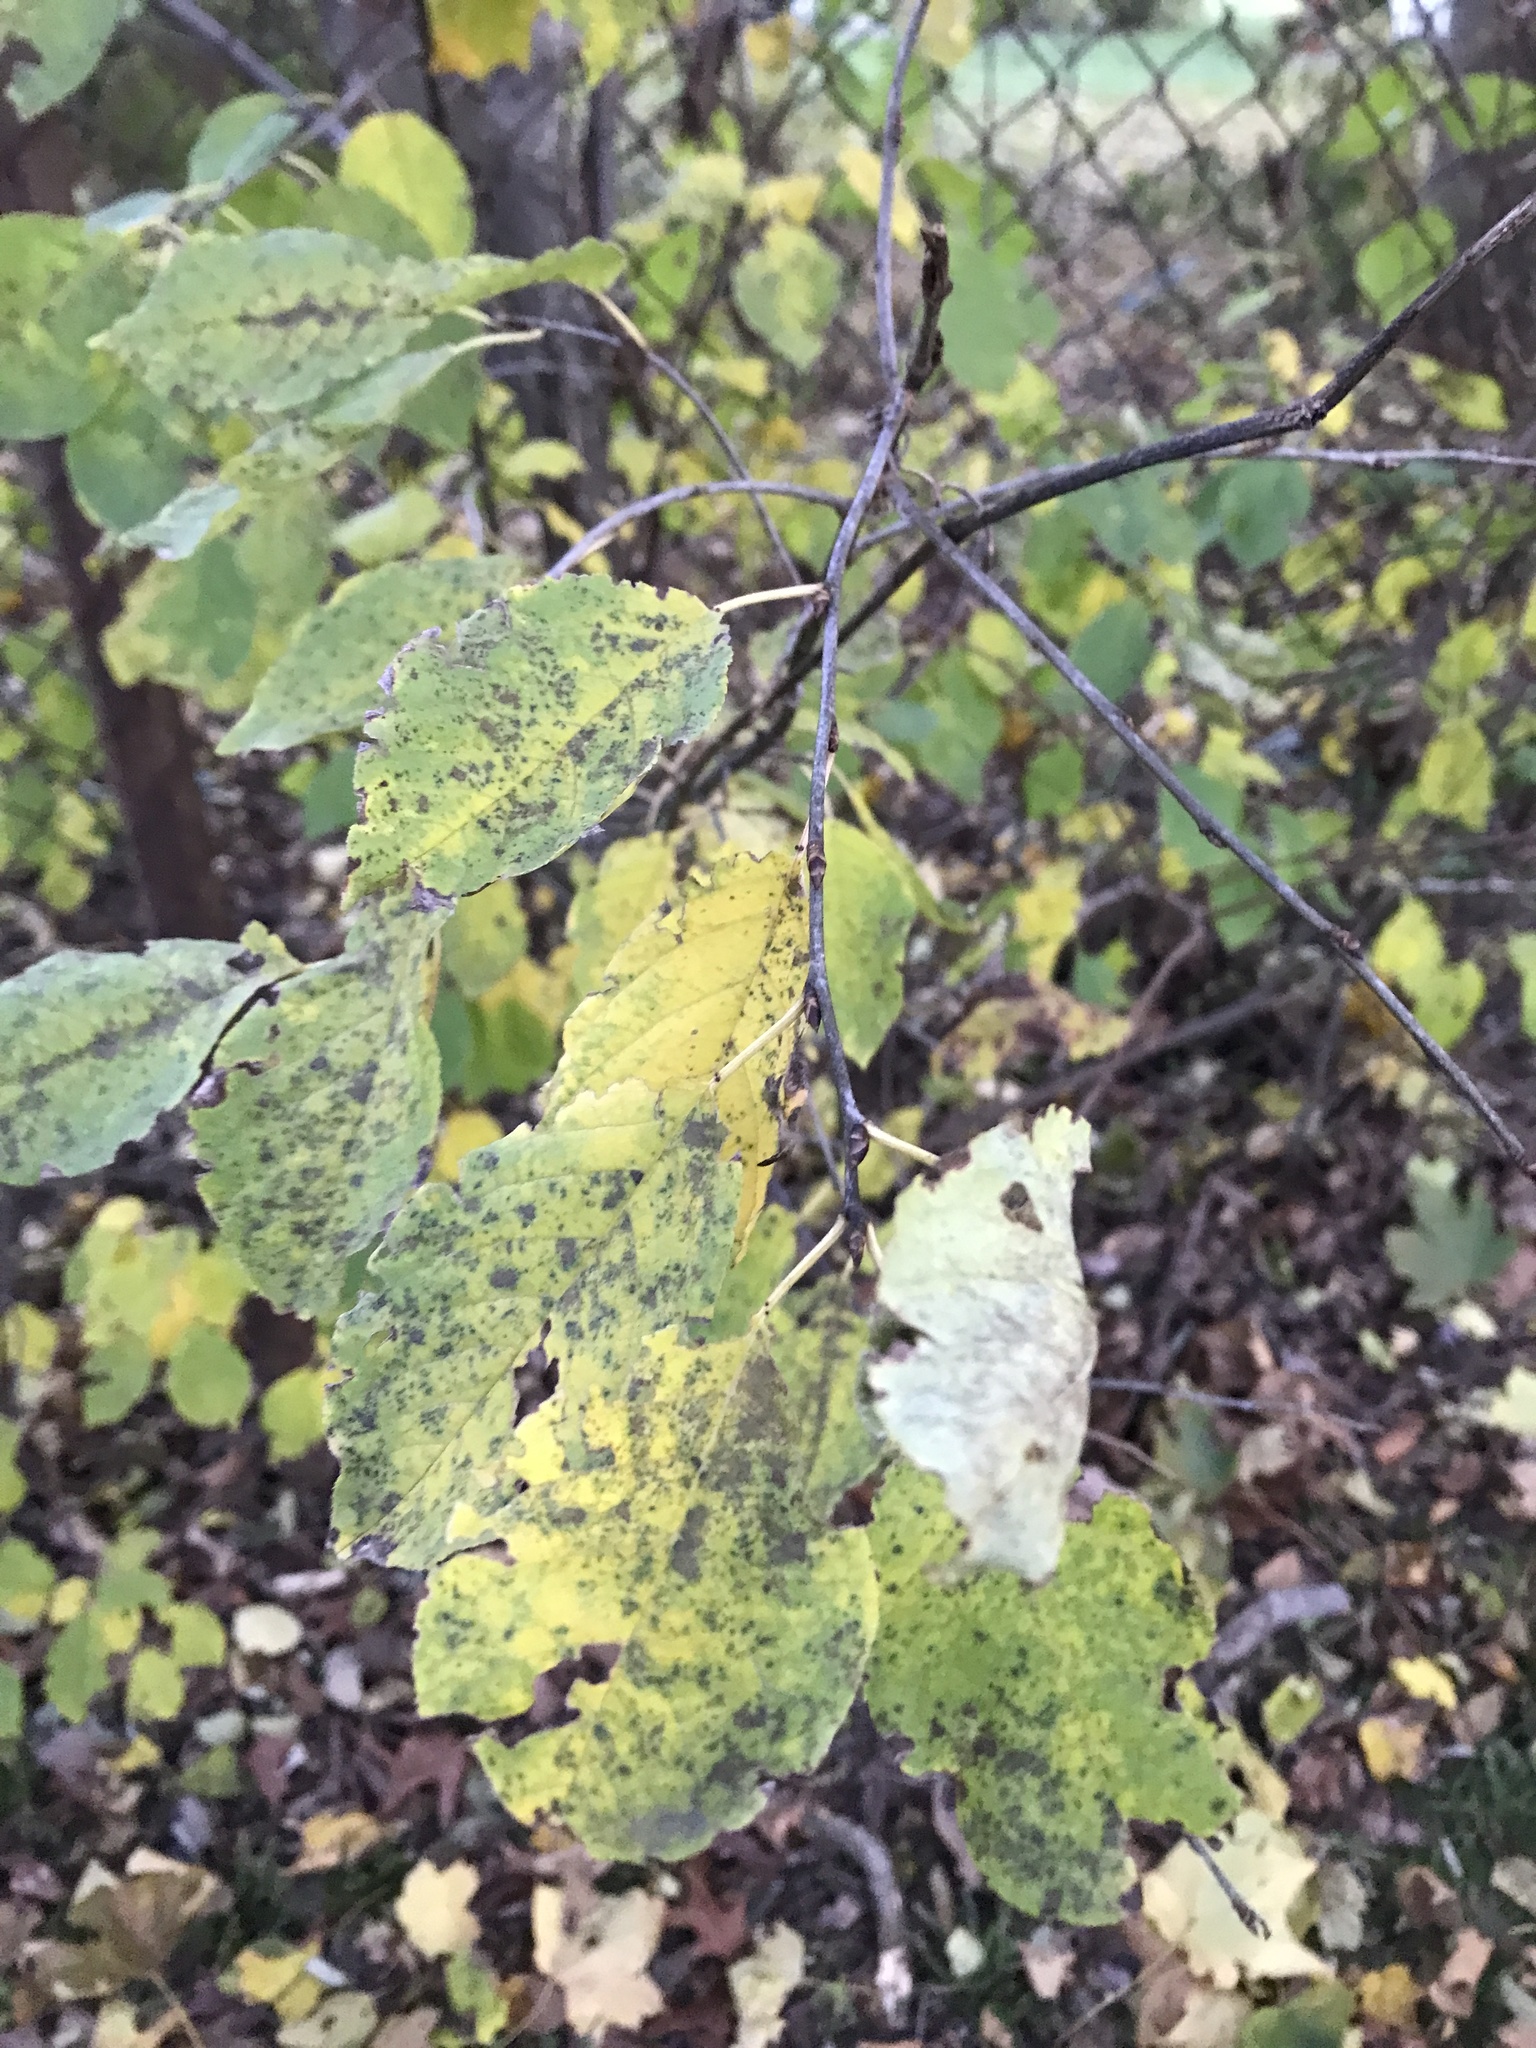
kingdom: Plantae
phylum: Tracheophyta
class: Magnoliopsida
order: Saxifragales
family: Hamamelidaceae
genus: Hamamelis
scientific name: Hamamelis virginiana
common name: Witch-hazel
